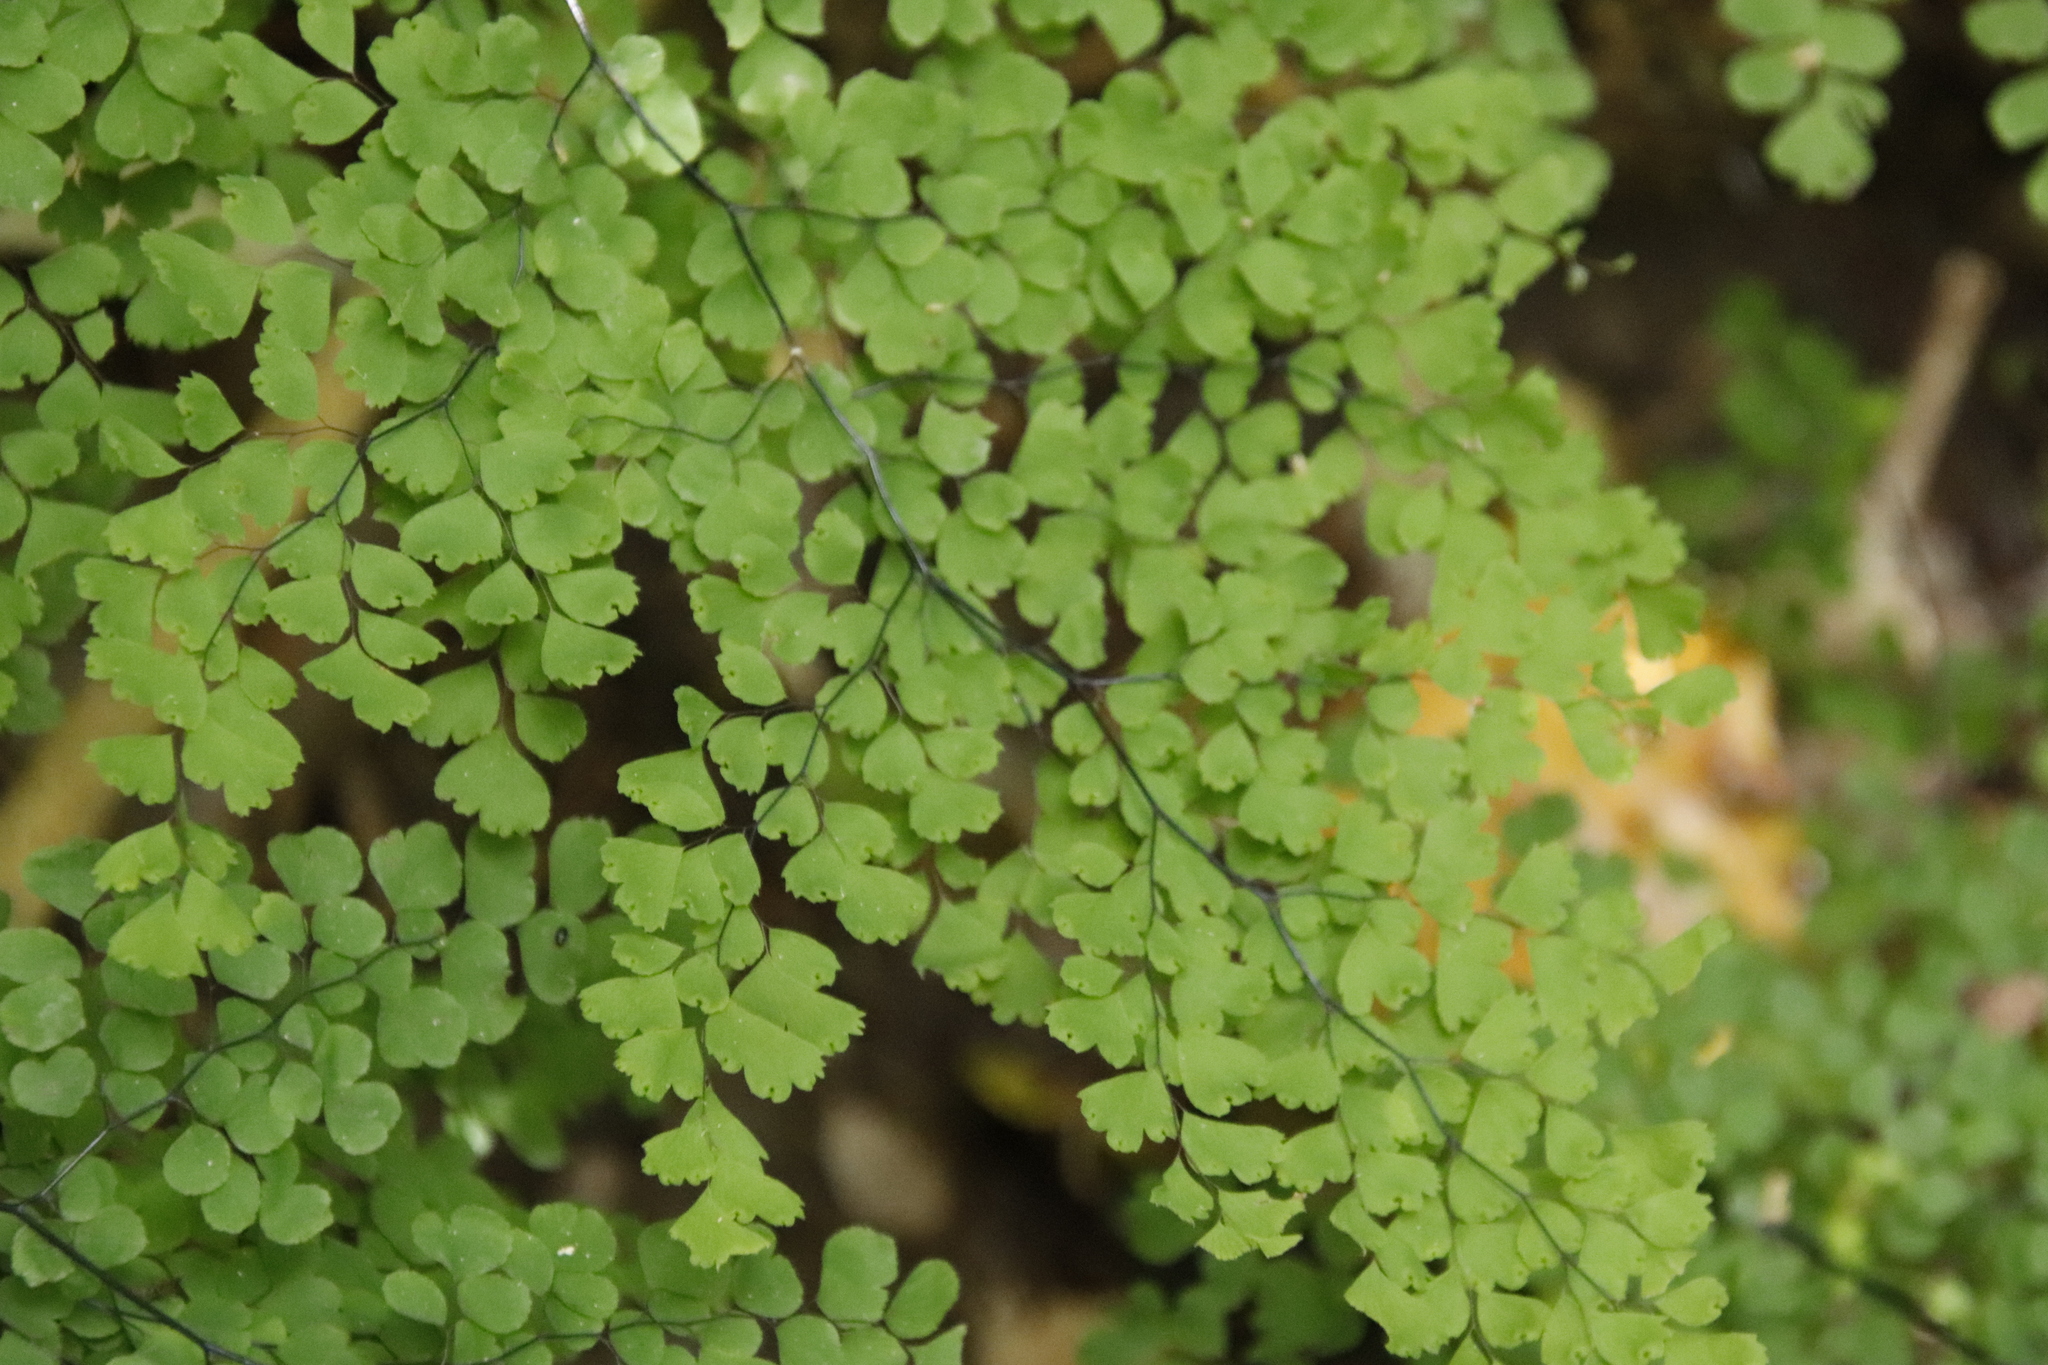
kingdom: Plantae
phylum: Tracheophyta
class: Polypodiopsida
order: Polypodiales
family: Pteridaceae
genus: Adiantum
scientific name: Adiantum aethiopicum
